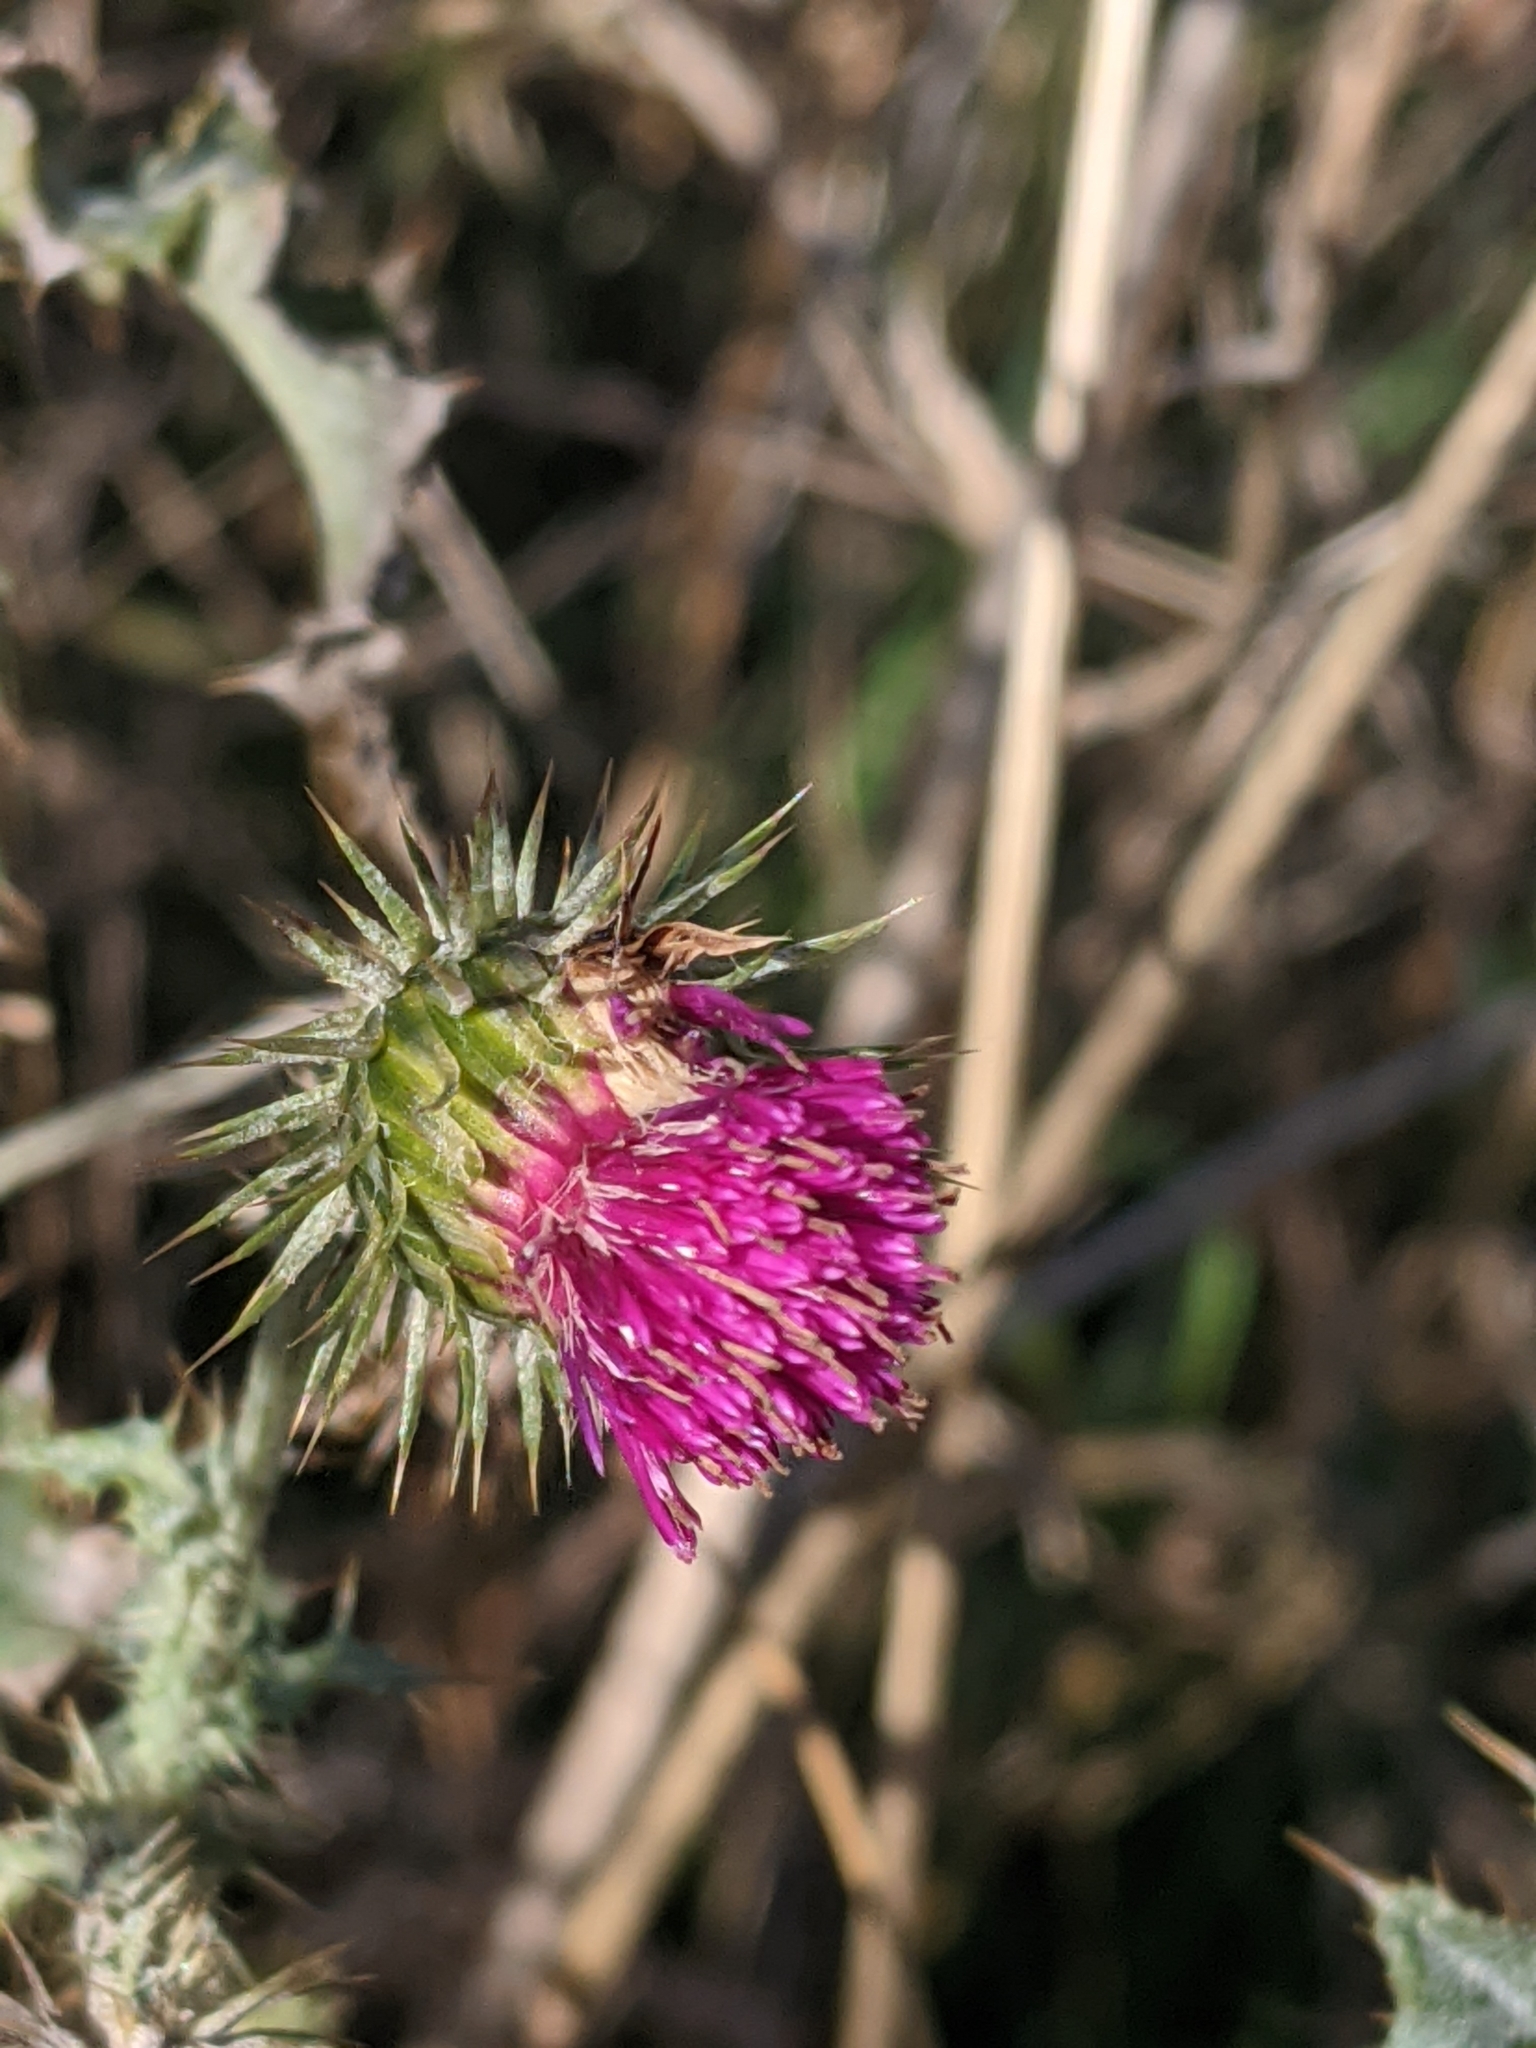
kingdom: Plantae
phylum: Tracheophyta
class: Magnoliopsida
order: Asterales
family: Asteraceae
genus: Carduus
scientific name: Carduus crispus
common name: Welted thistle
